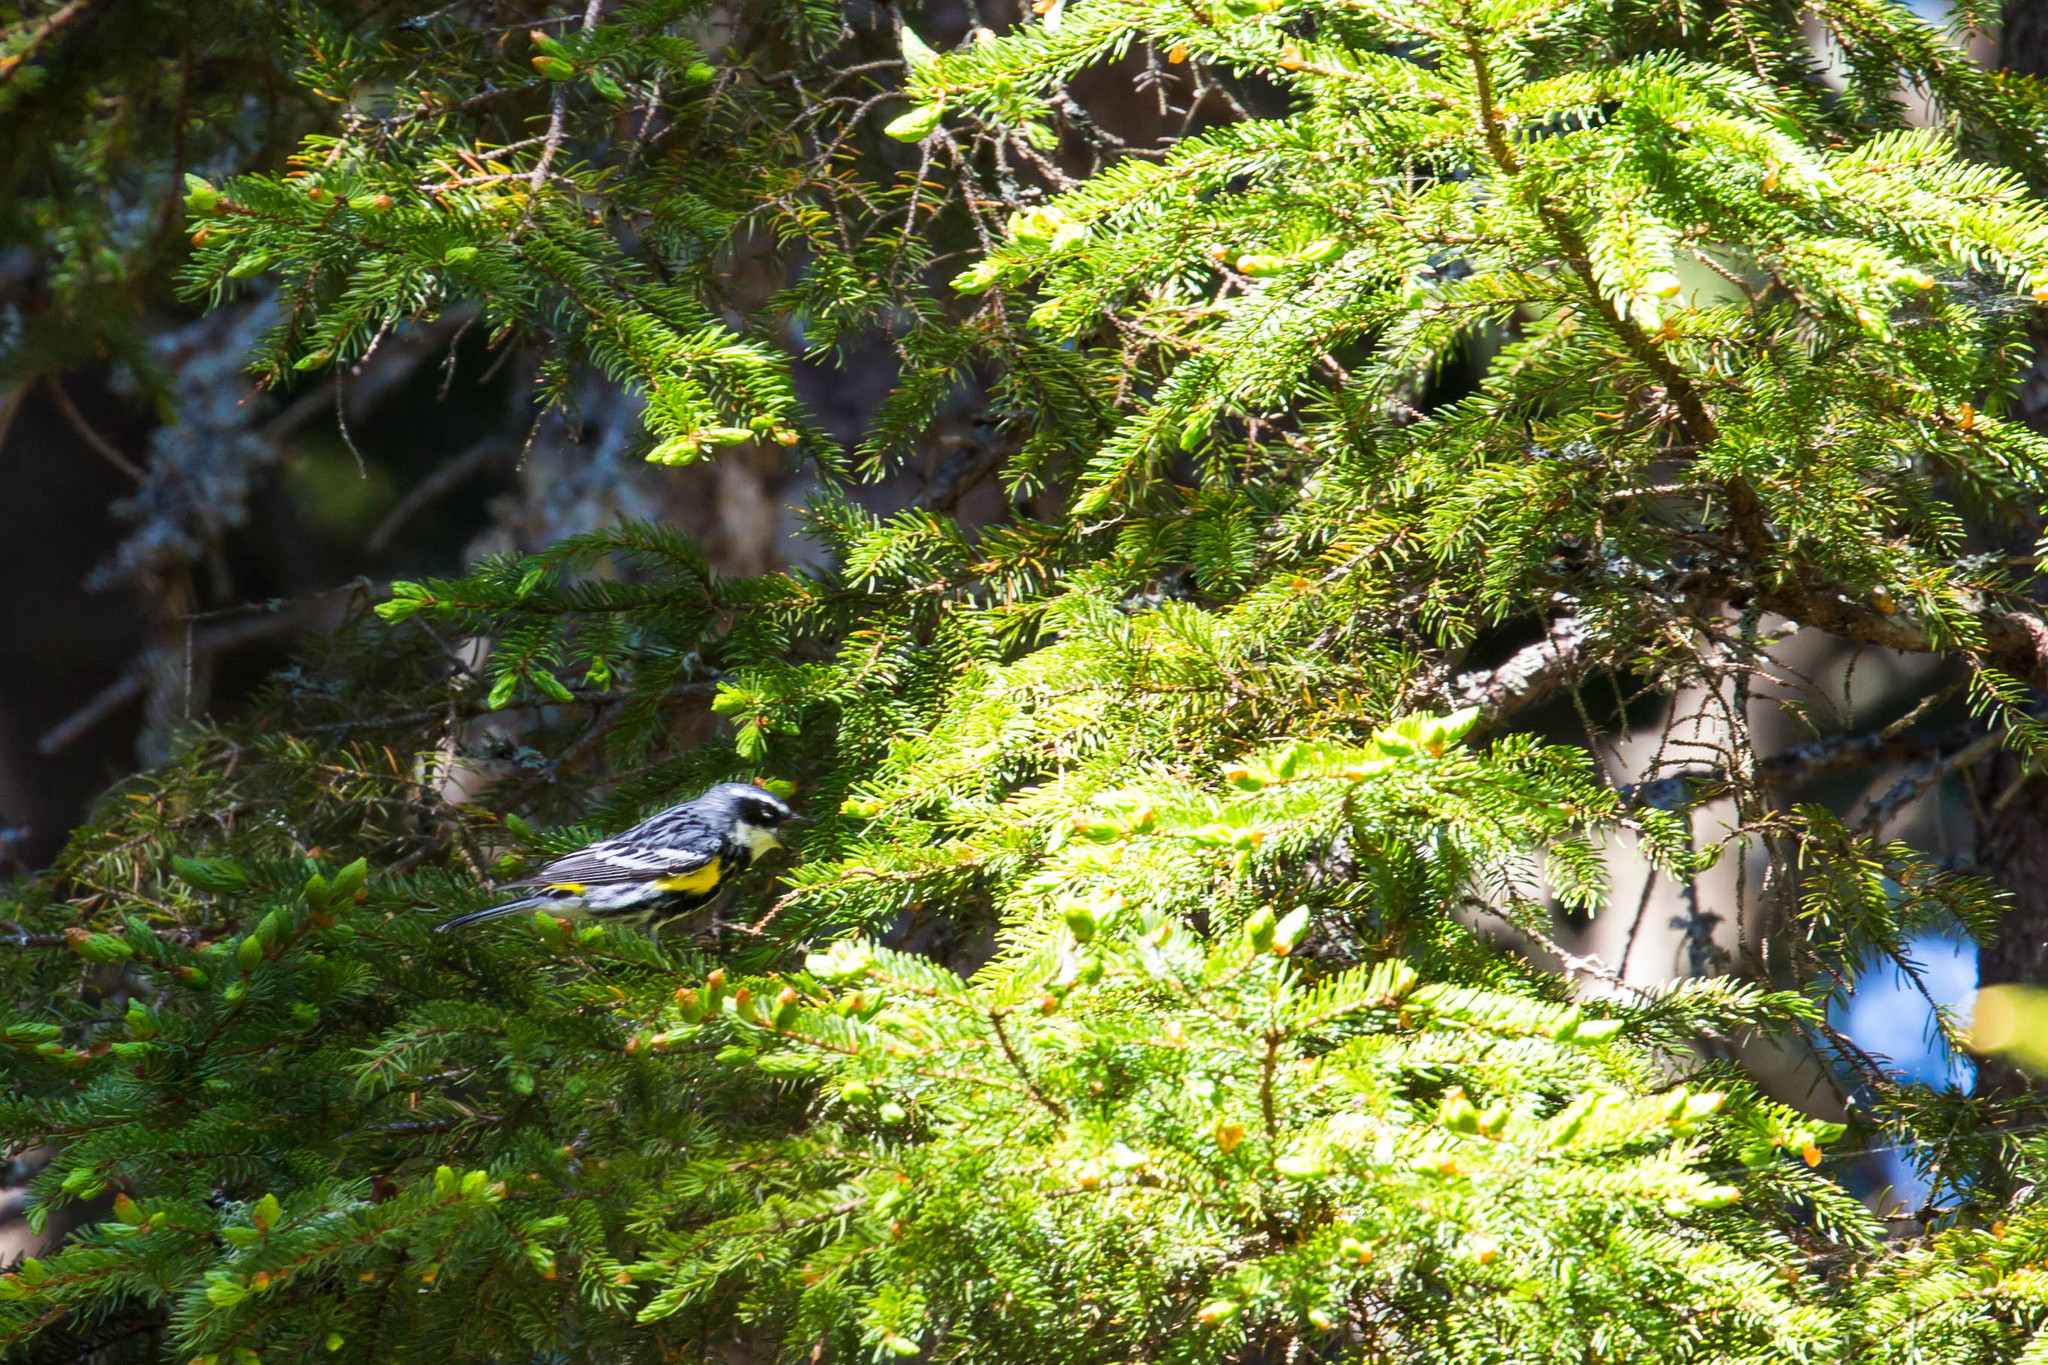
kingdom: Animalia
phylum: Chordata
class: Aves
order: Passeriformes
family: Parulidae
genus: Setophaga
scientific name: Setophaga coronata
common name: Myrtle warbler
